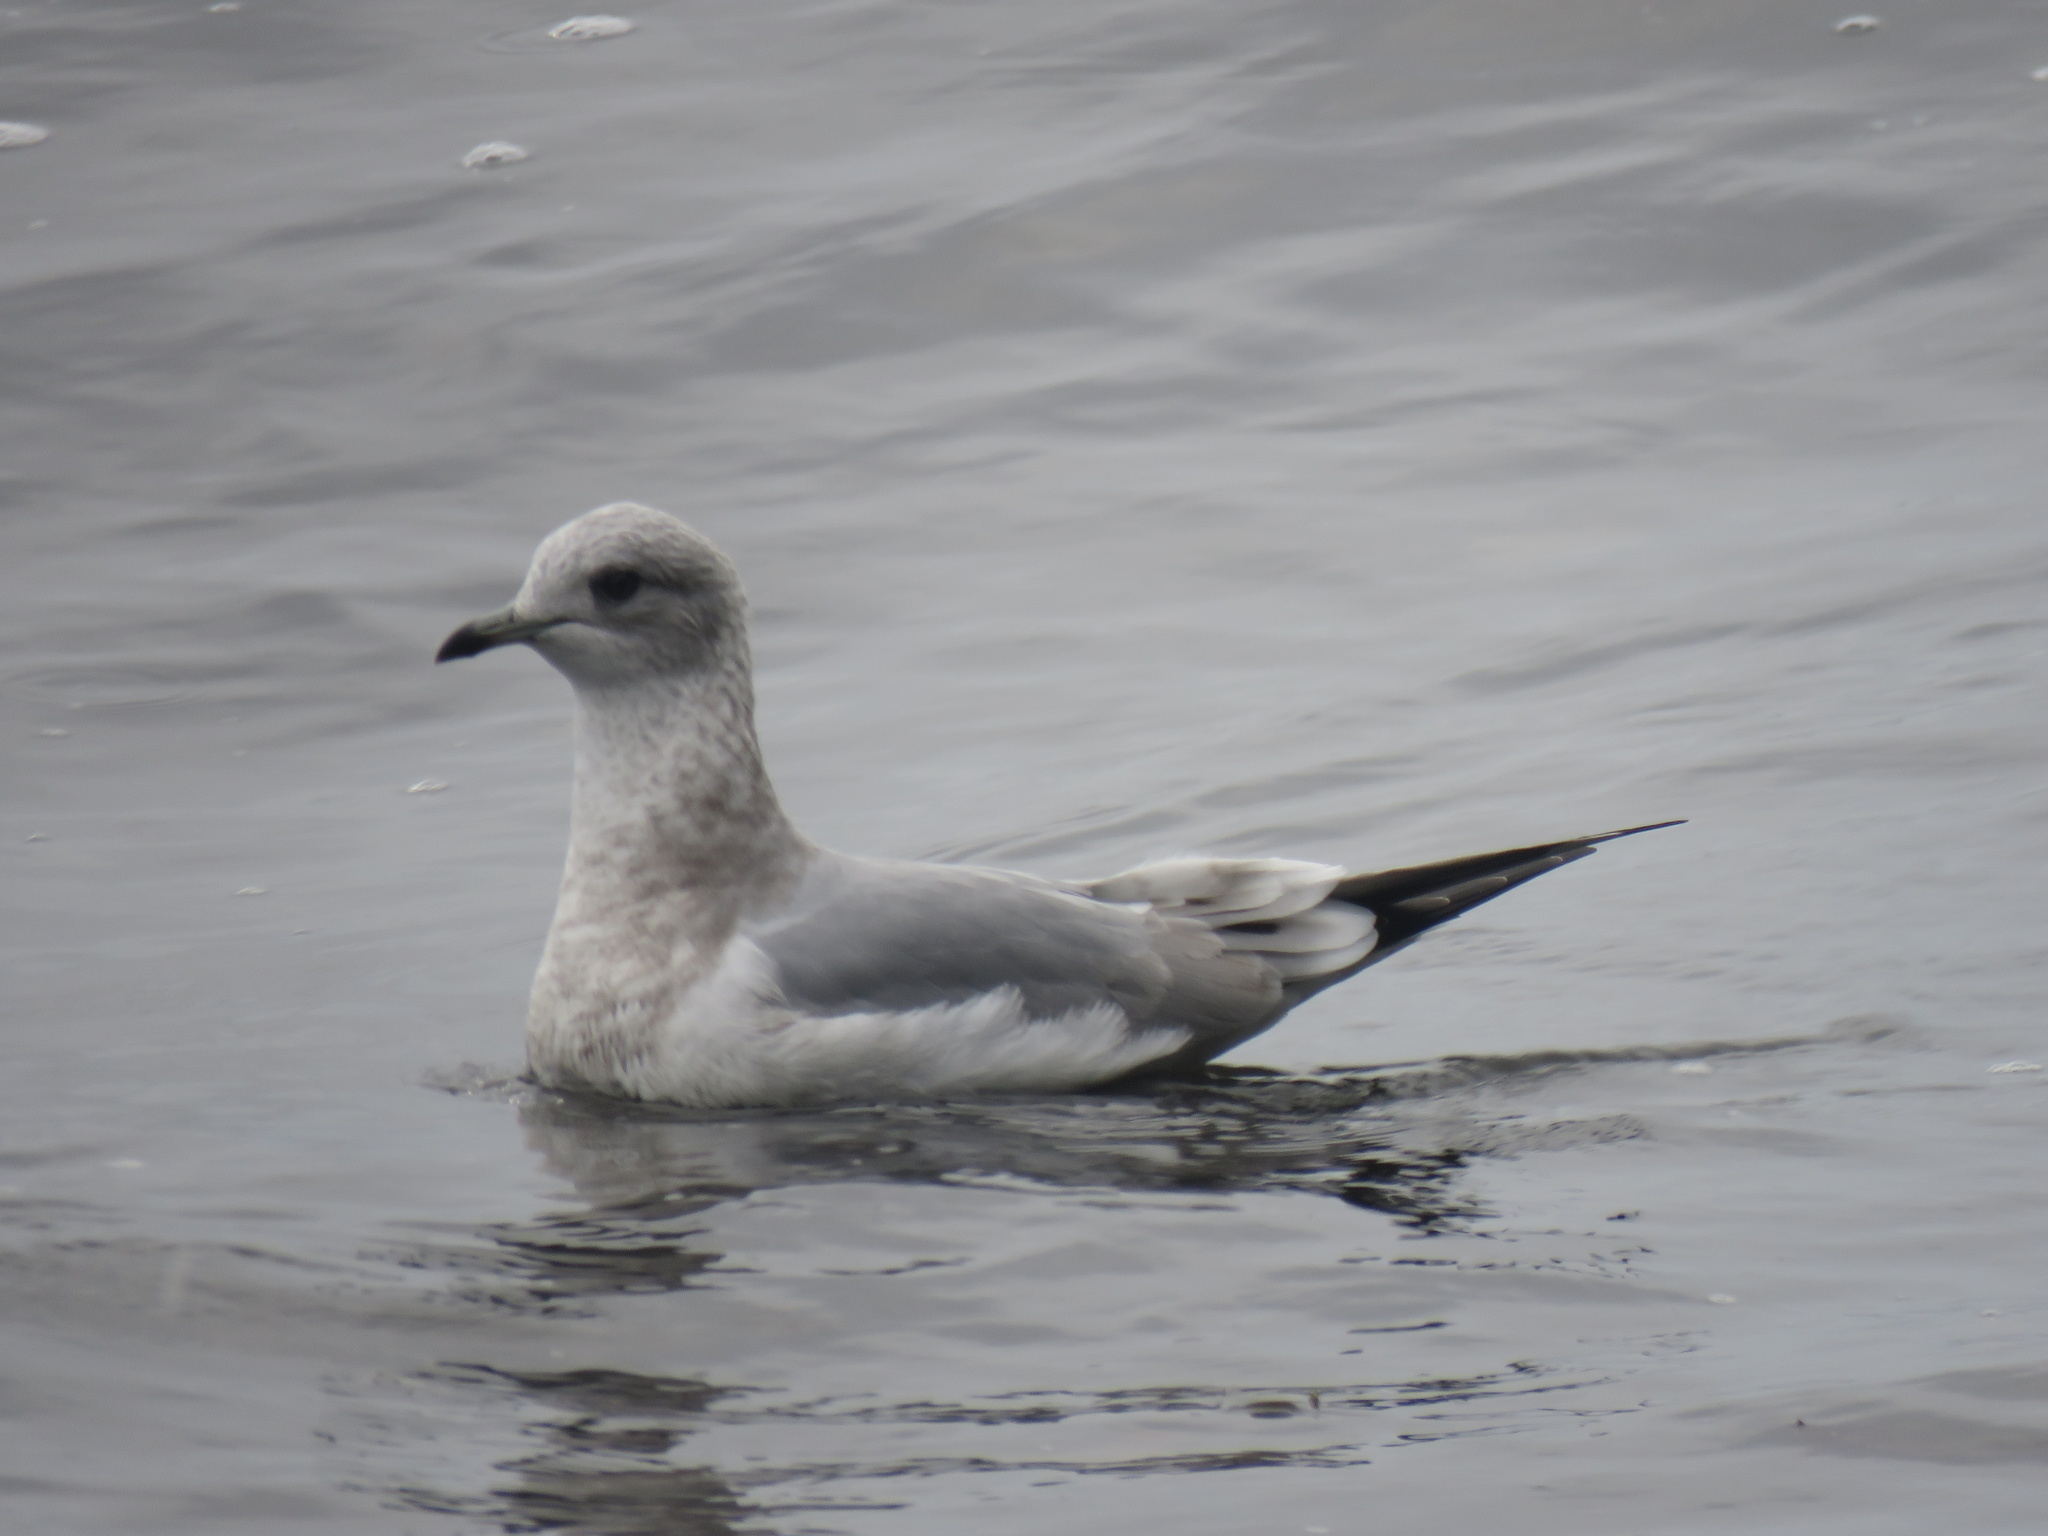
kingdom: Animalia
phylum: Chordata
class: Aves
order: Charadriiformes
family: Laridae
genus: Larus
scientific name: Larus brachyrhynchus
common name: Short-billed gull
